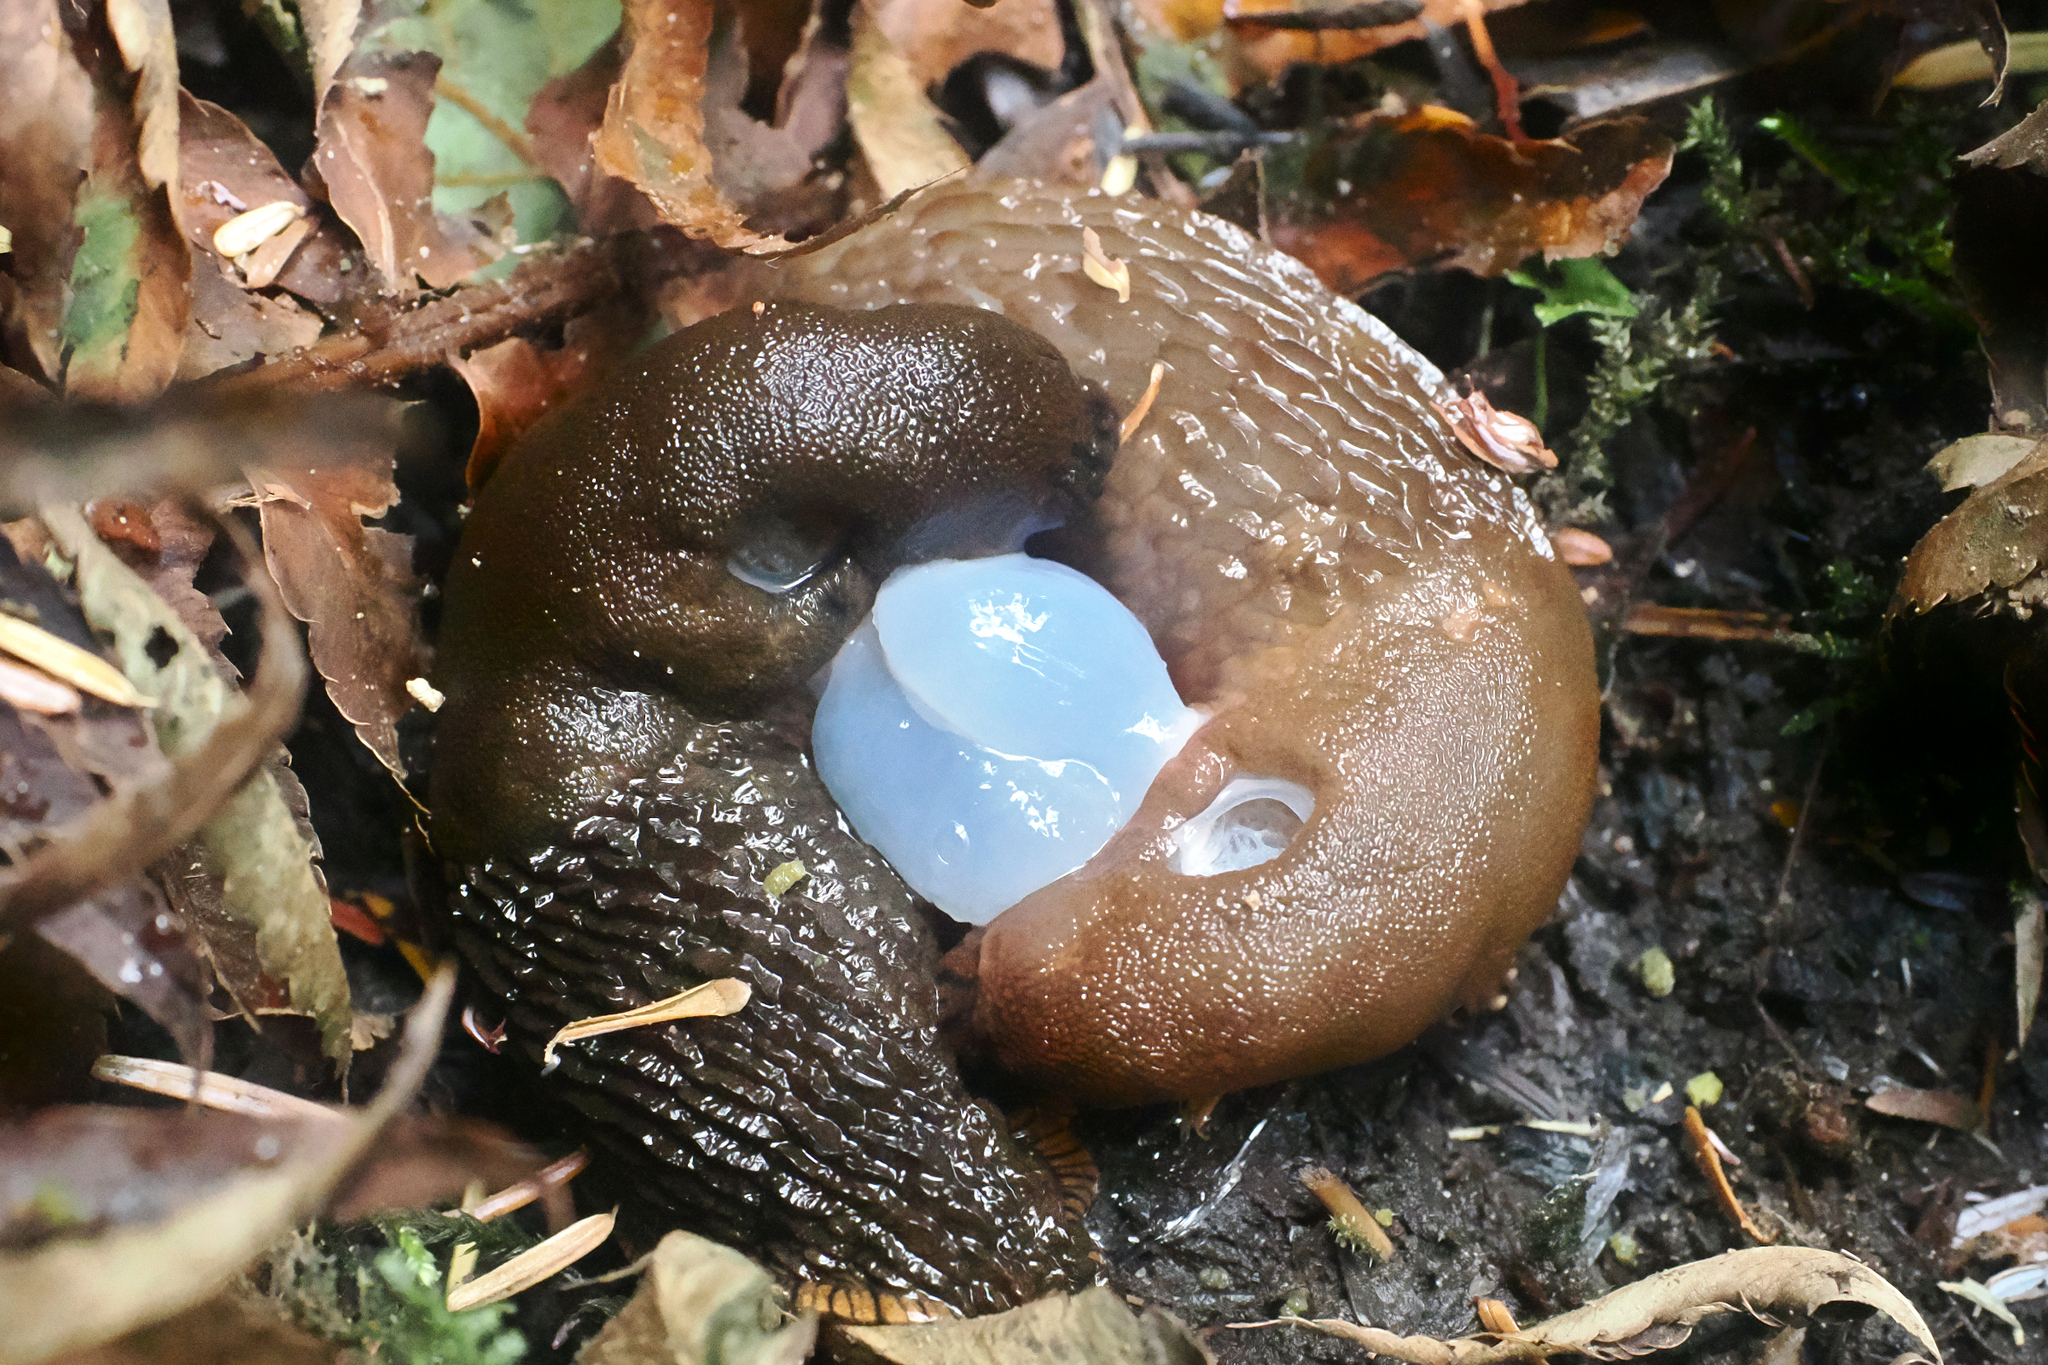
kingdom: Animalia
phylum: Mollusca
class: Gastropoda
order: Stylommatophora
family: Arionidae
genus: Arion
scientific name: Arion
